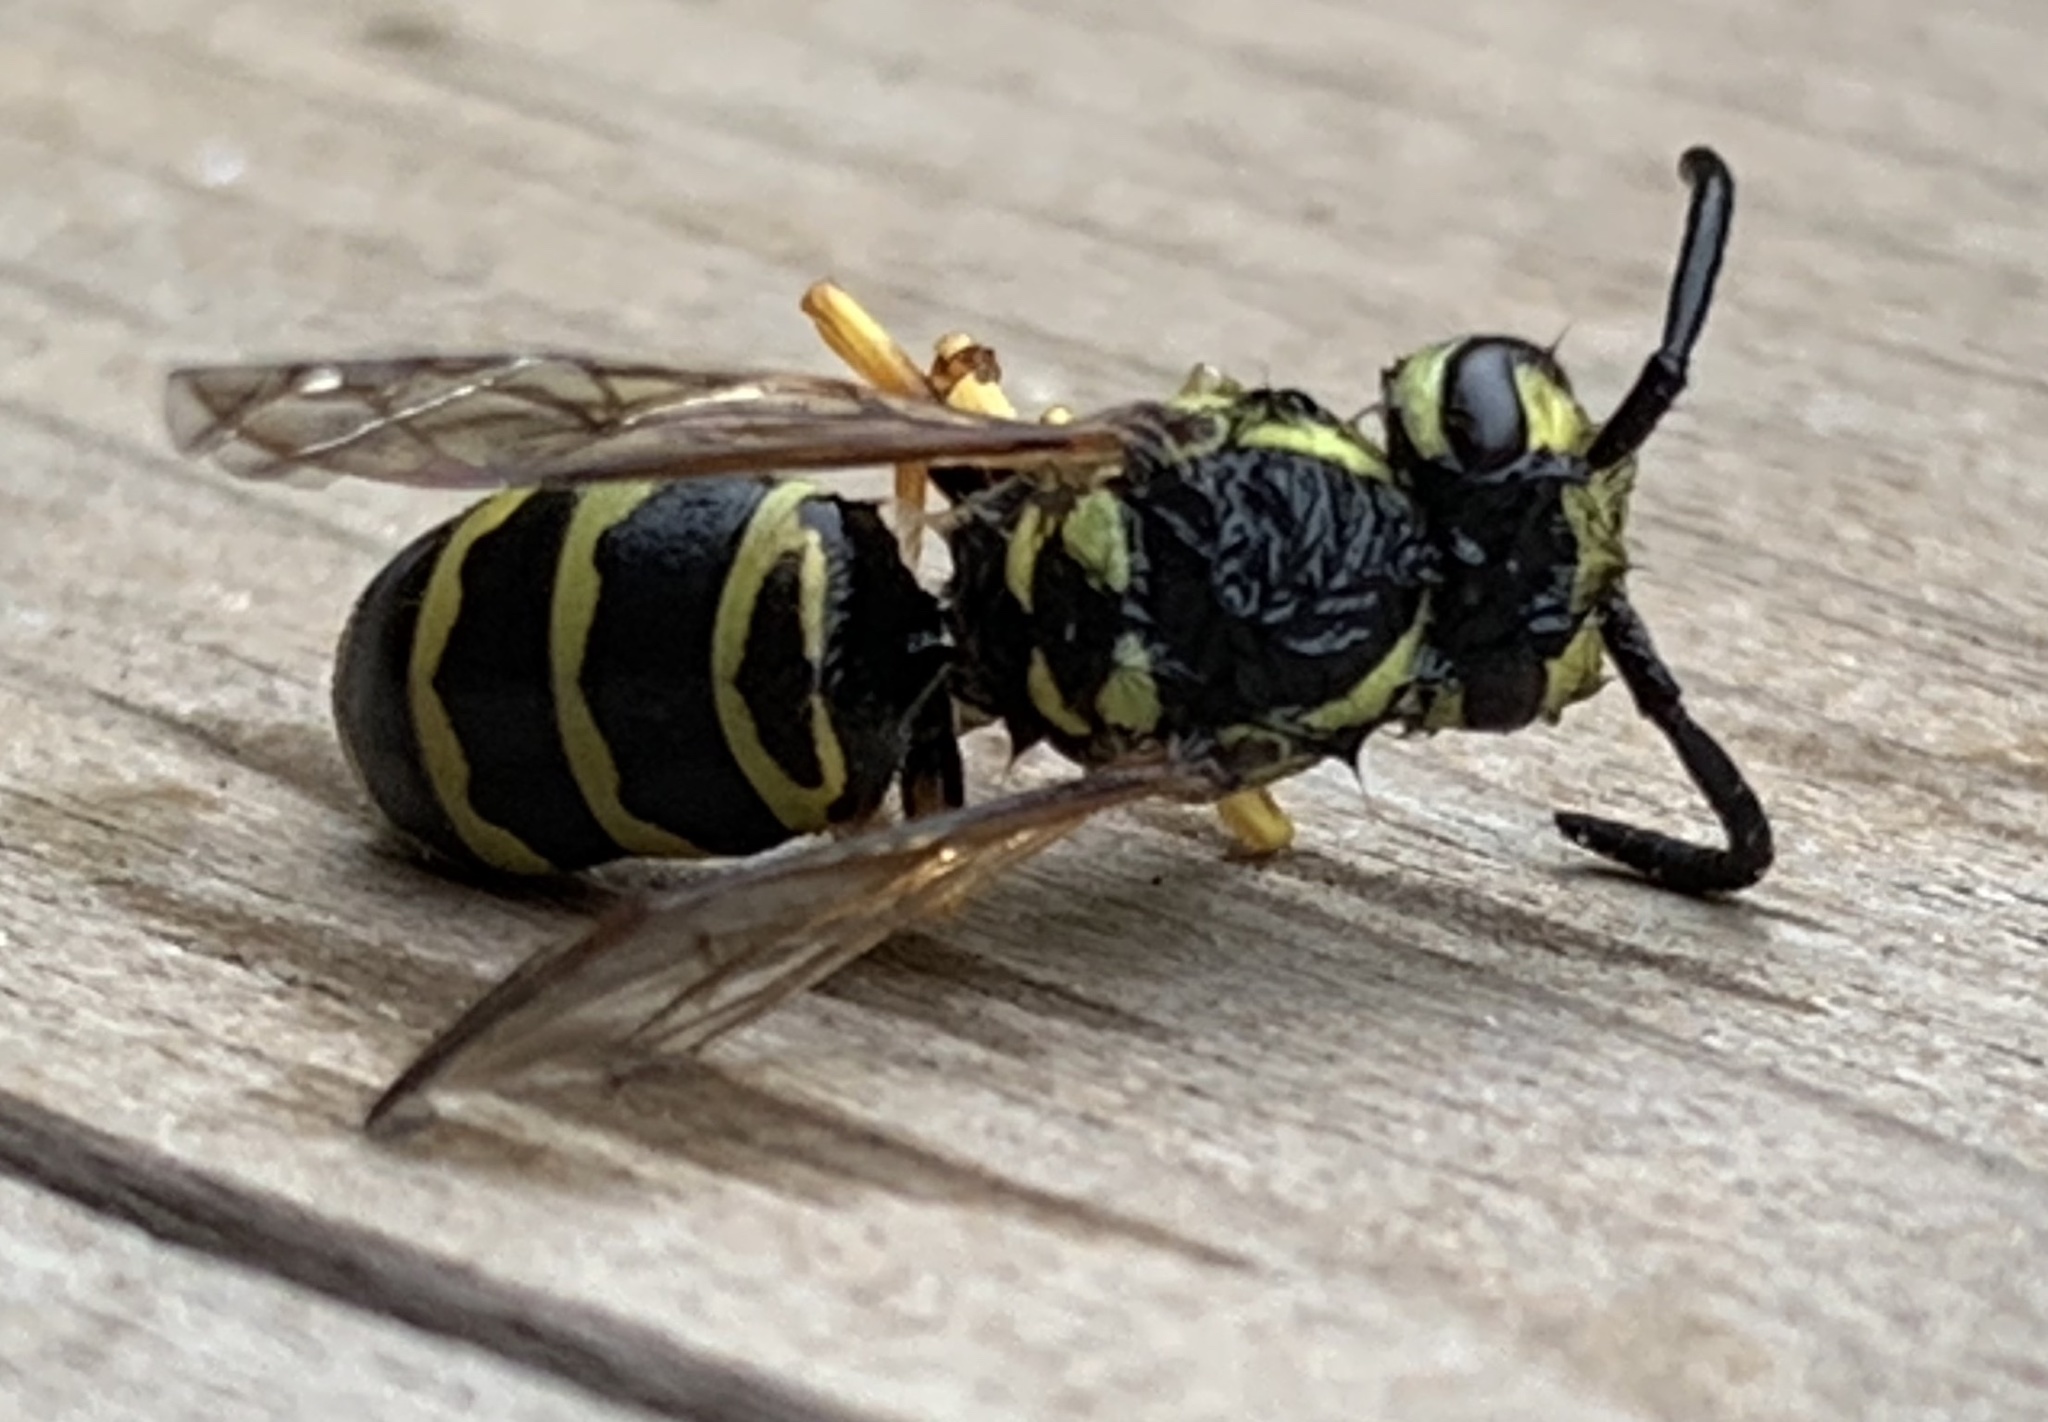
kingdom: Animalia
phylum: Arthropoda
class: Insecta
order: Hymenoptera
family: Vespidae
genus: Vespula
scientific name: Vespula maculifrons
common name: Eastern yellowjacket
